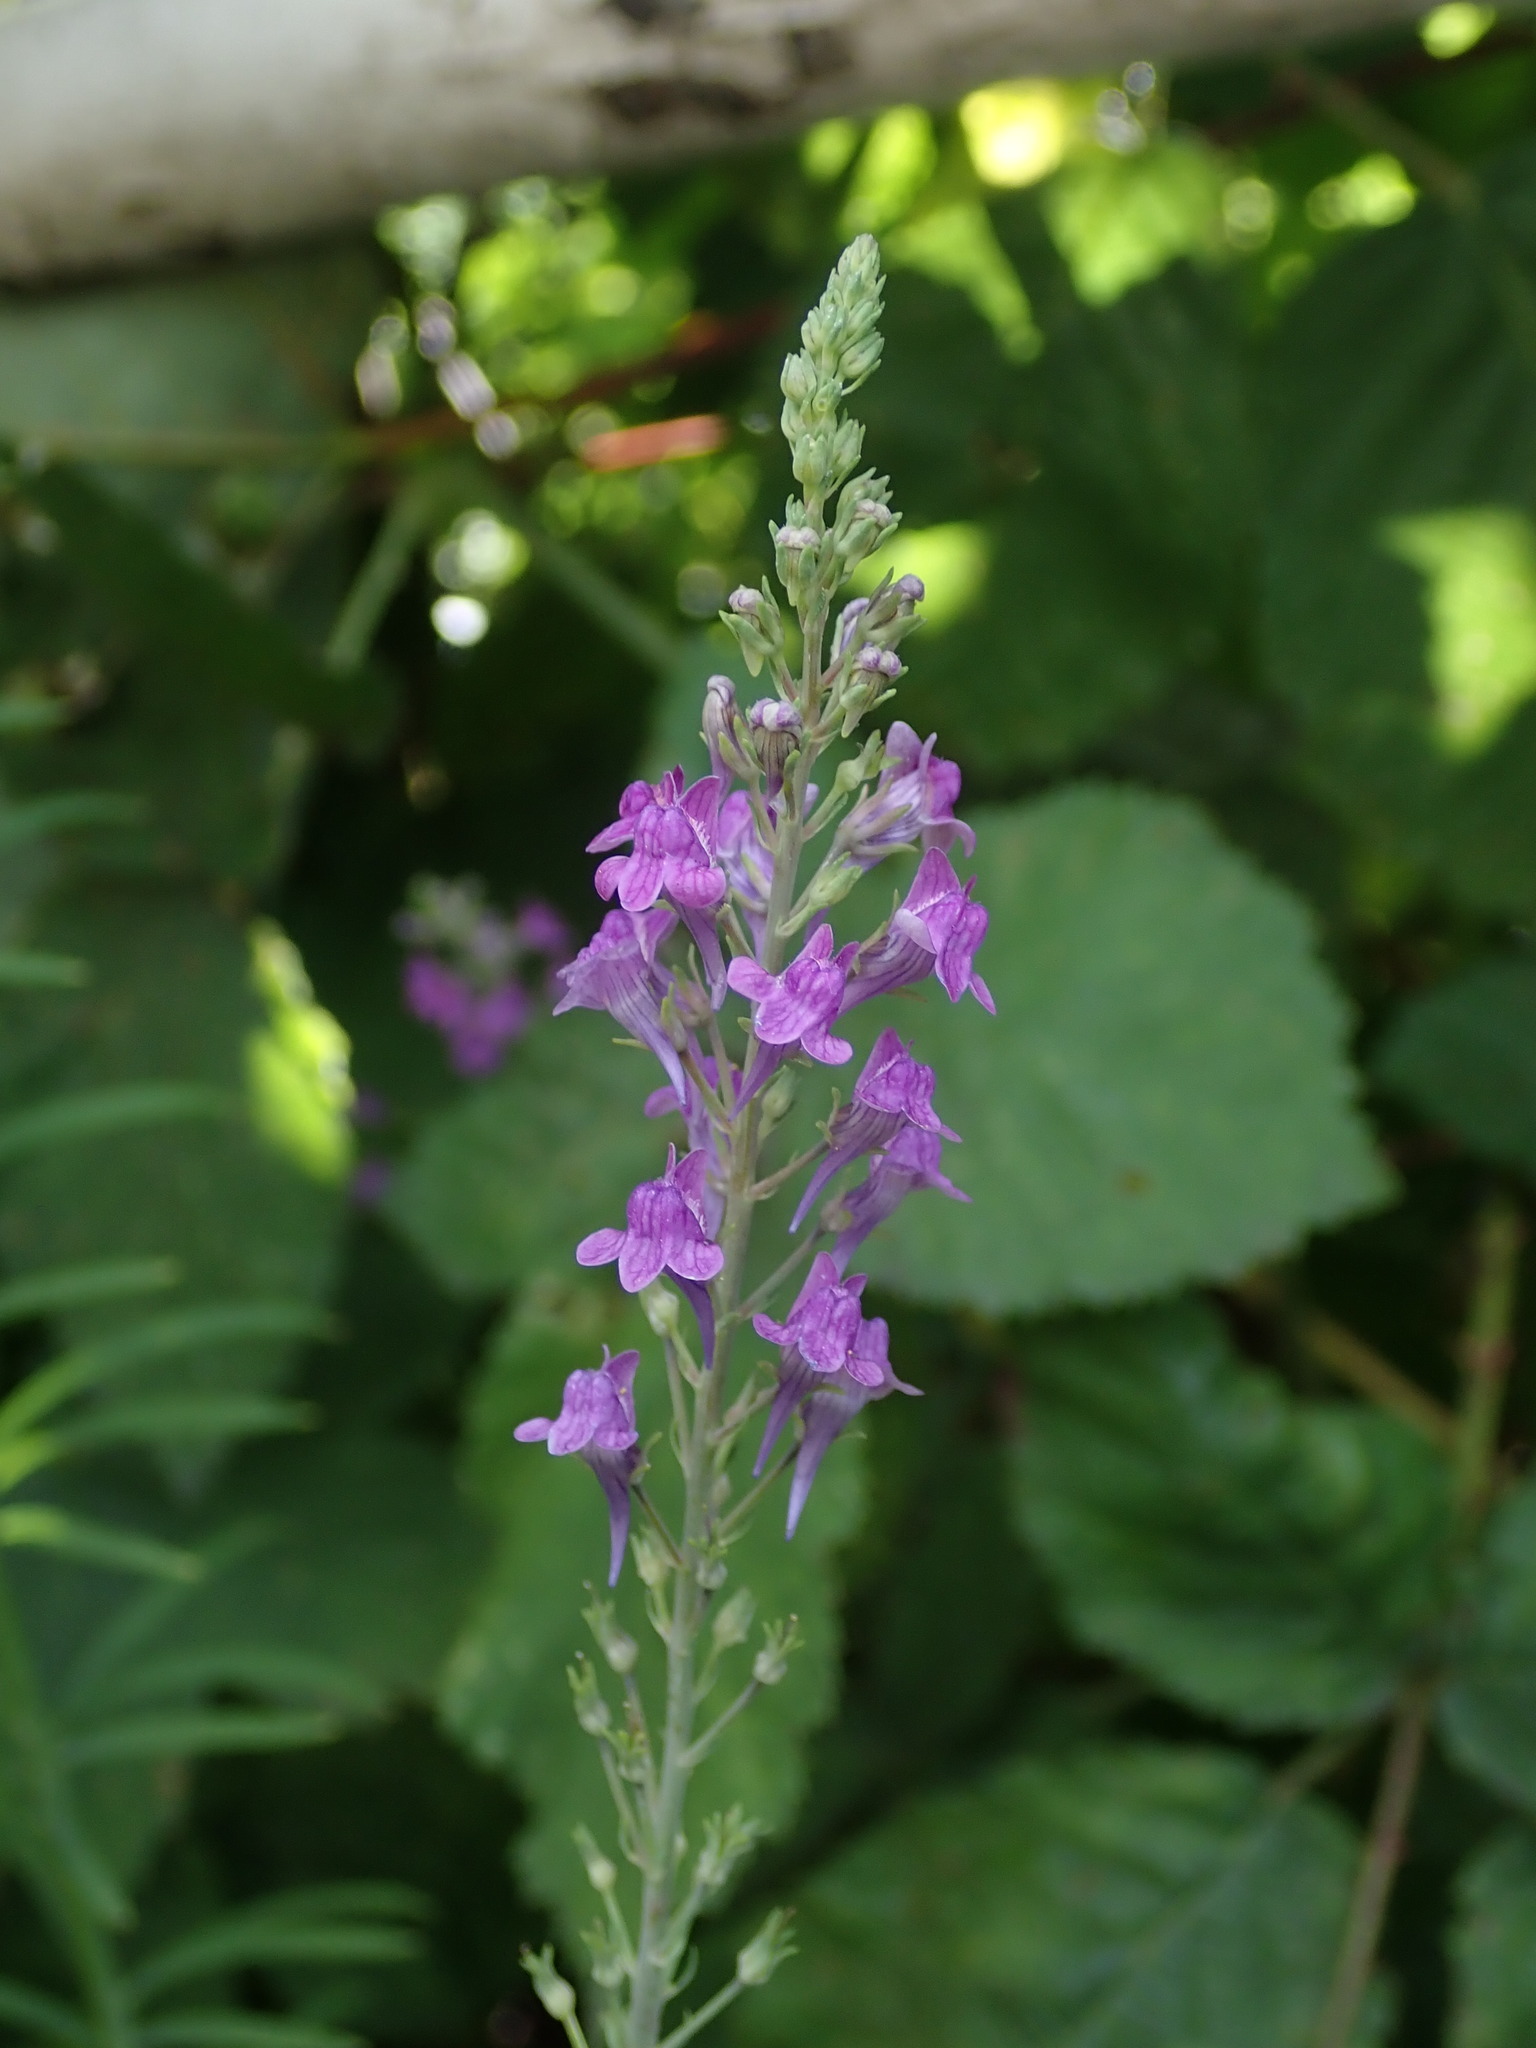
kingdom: Plantae
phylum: Tracheophyta
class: Magnoliopsida
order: Lamiales
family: Plantaginaceae
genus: Linaria
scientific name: Linaria purpurea
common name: Purple toadflax
